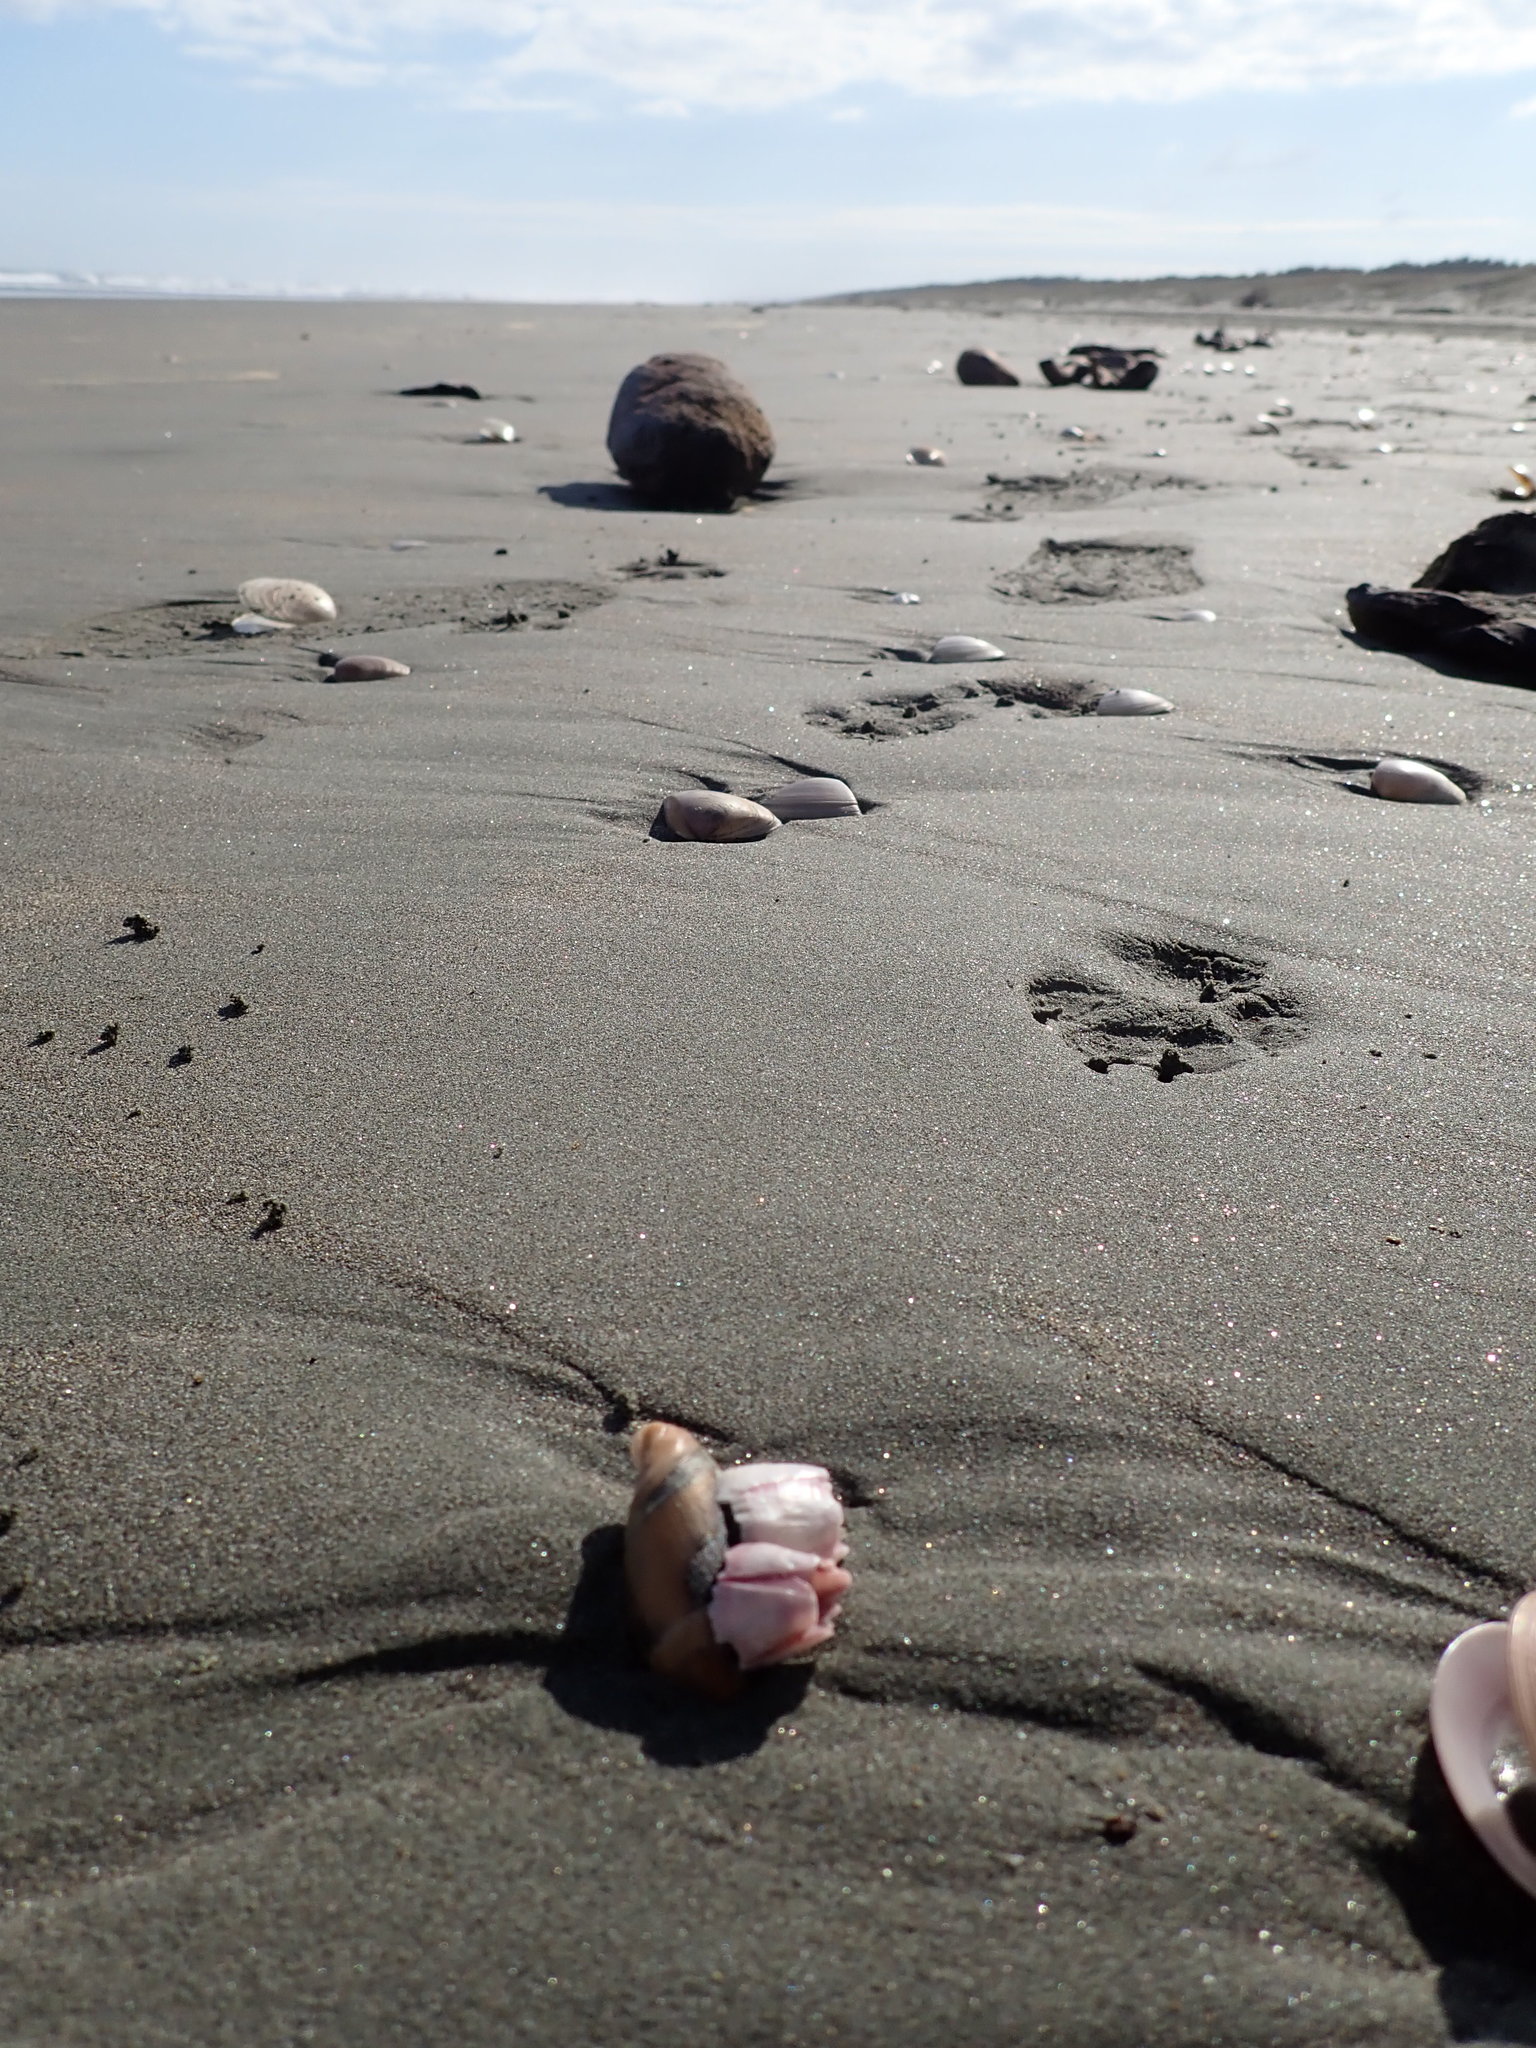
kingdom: Animalia
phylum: Arthropoda
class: Maxillopoda
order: Sessilia
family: Balanidae
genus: Notomegabalanus
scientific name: Notomegabalanus decorus
